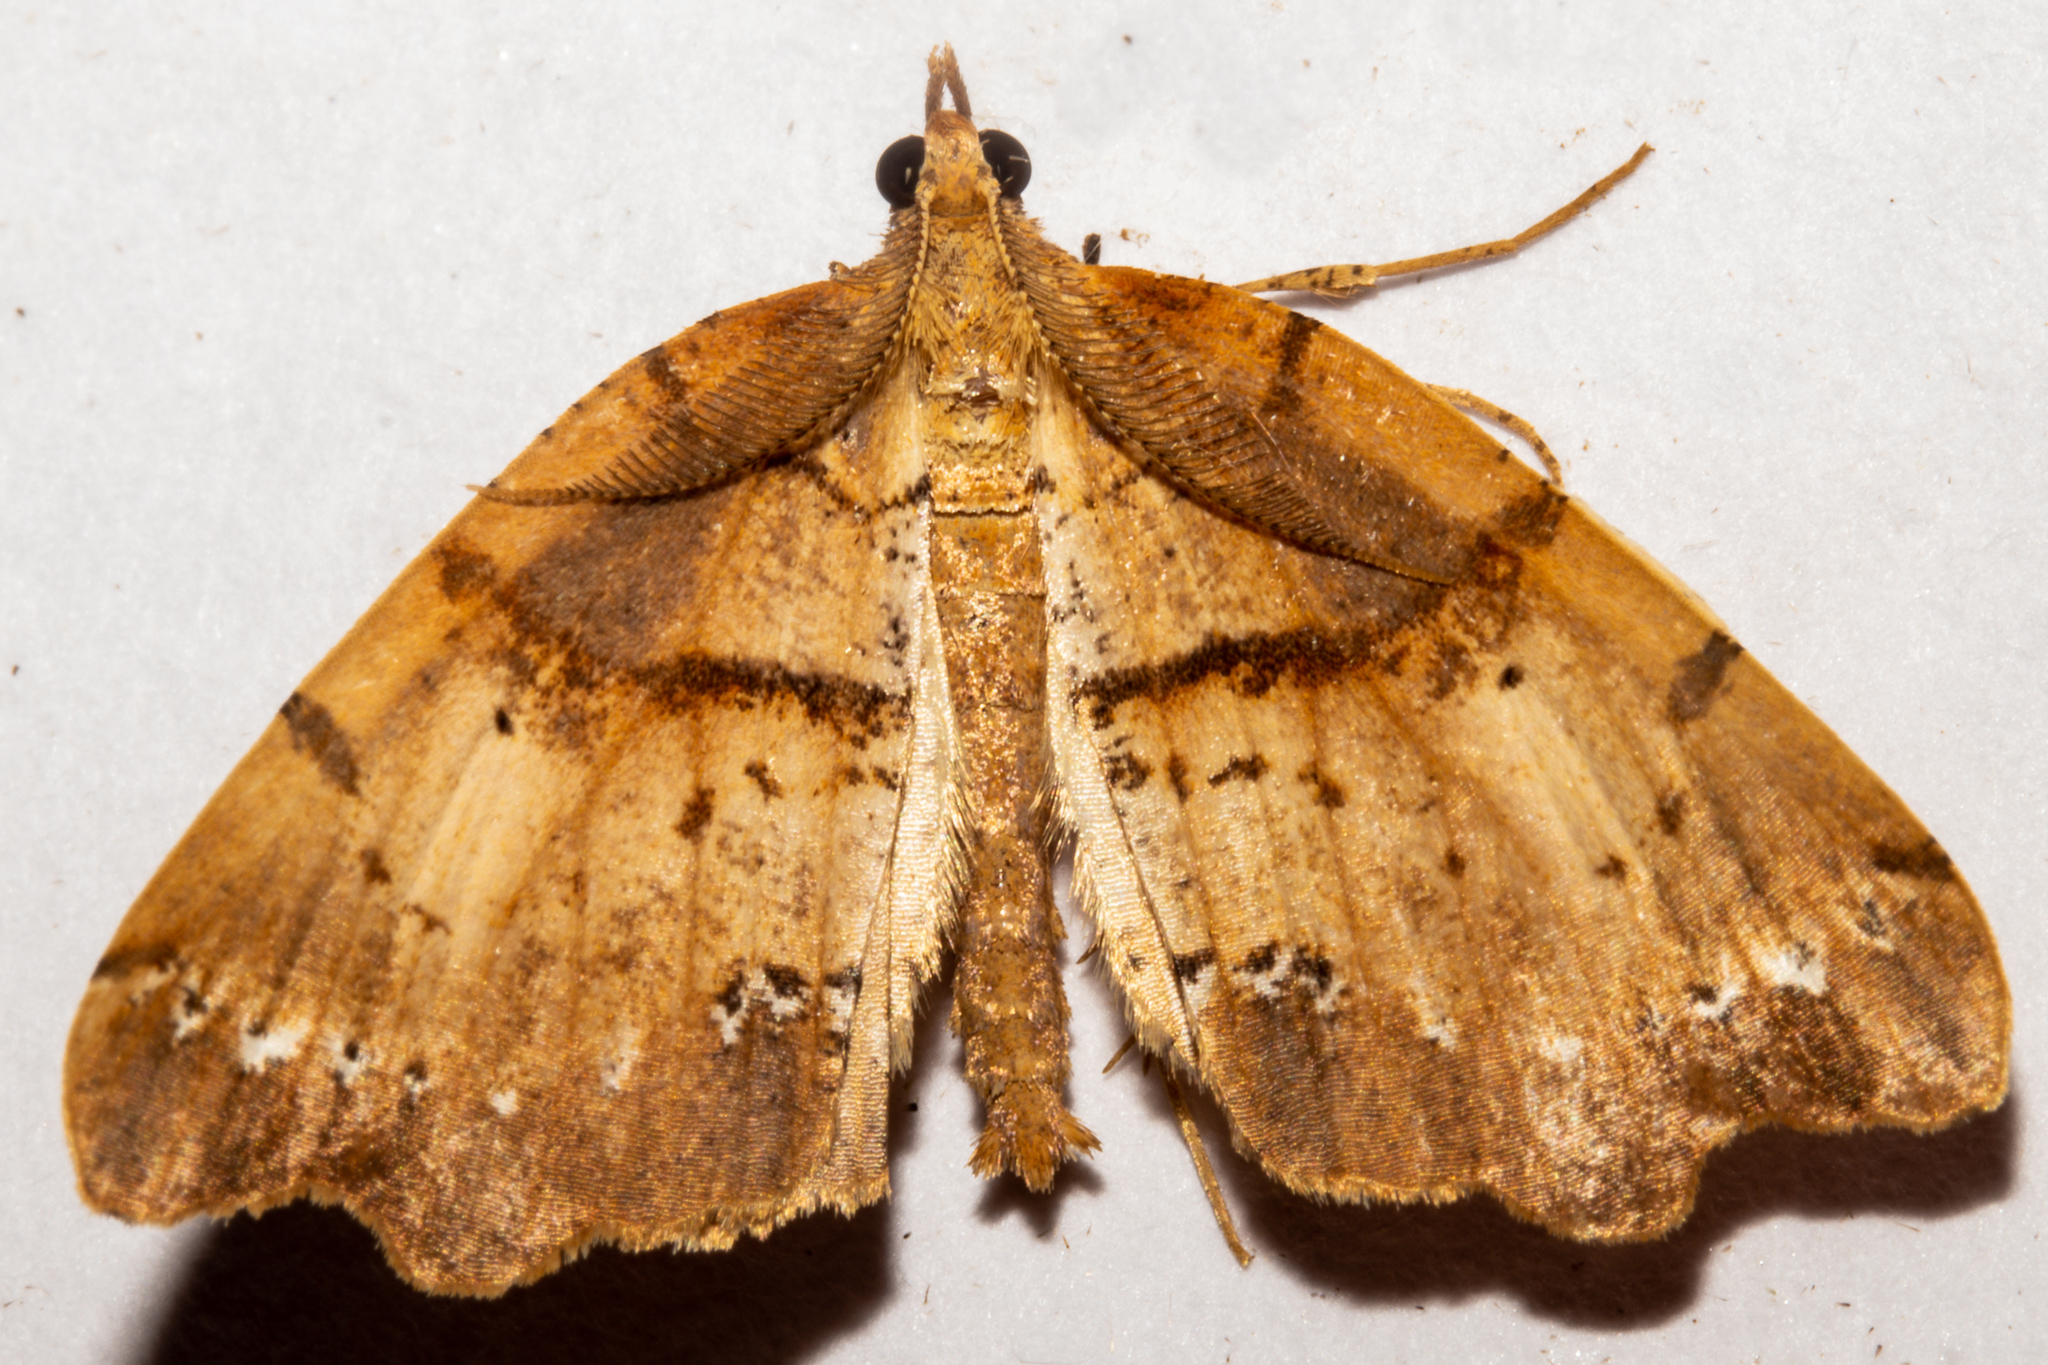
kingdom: Animalia
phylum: Arthropoda
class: Insecta
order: Lepidoptera
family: Geometridae
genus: Chalastra
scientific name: Chalastra pellurgata
